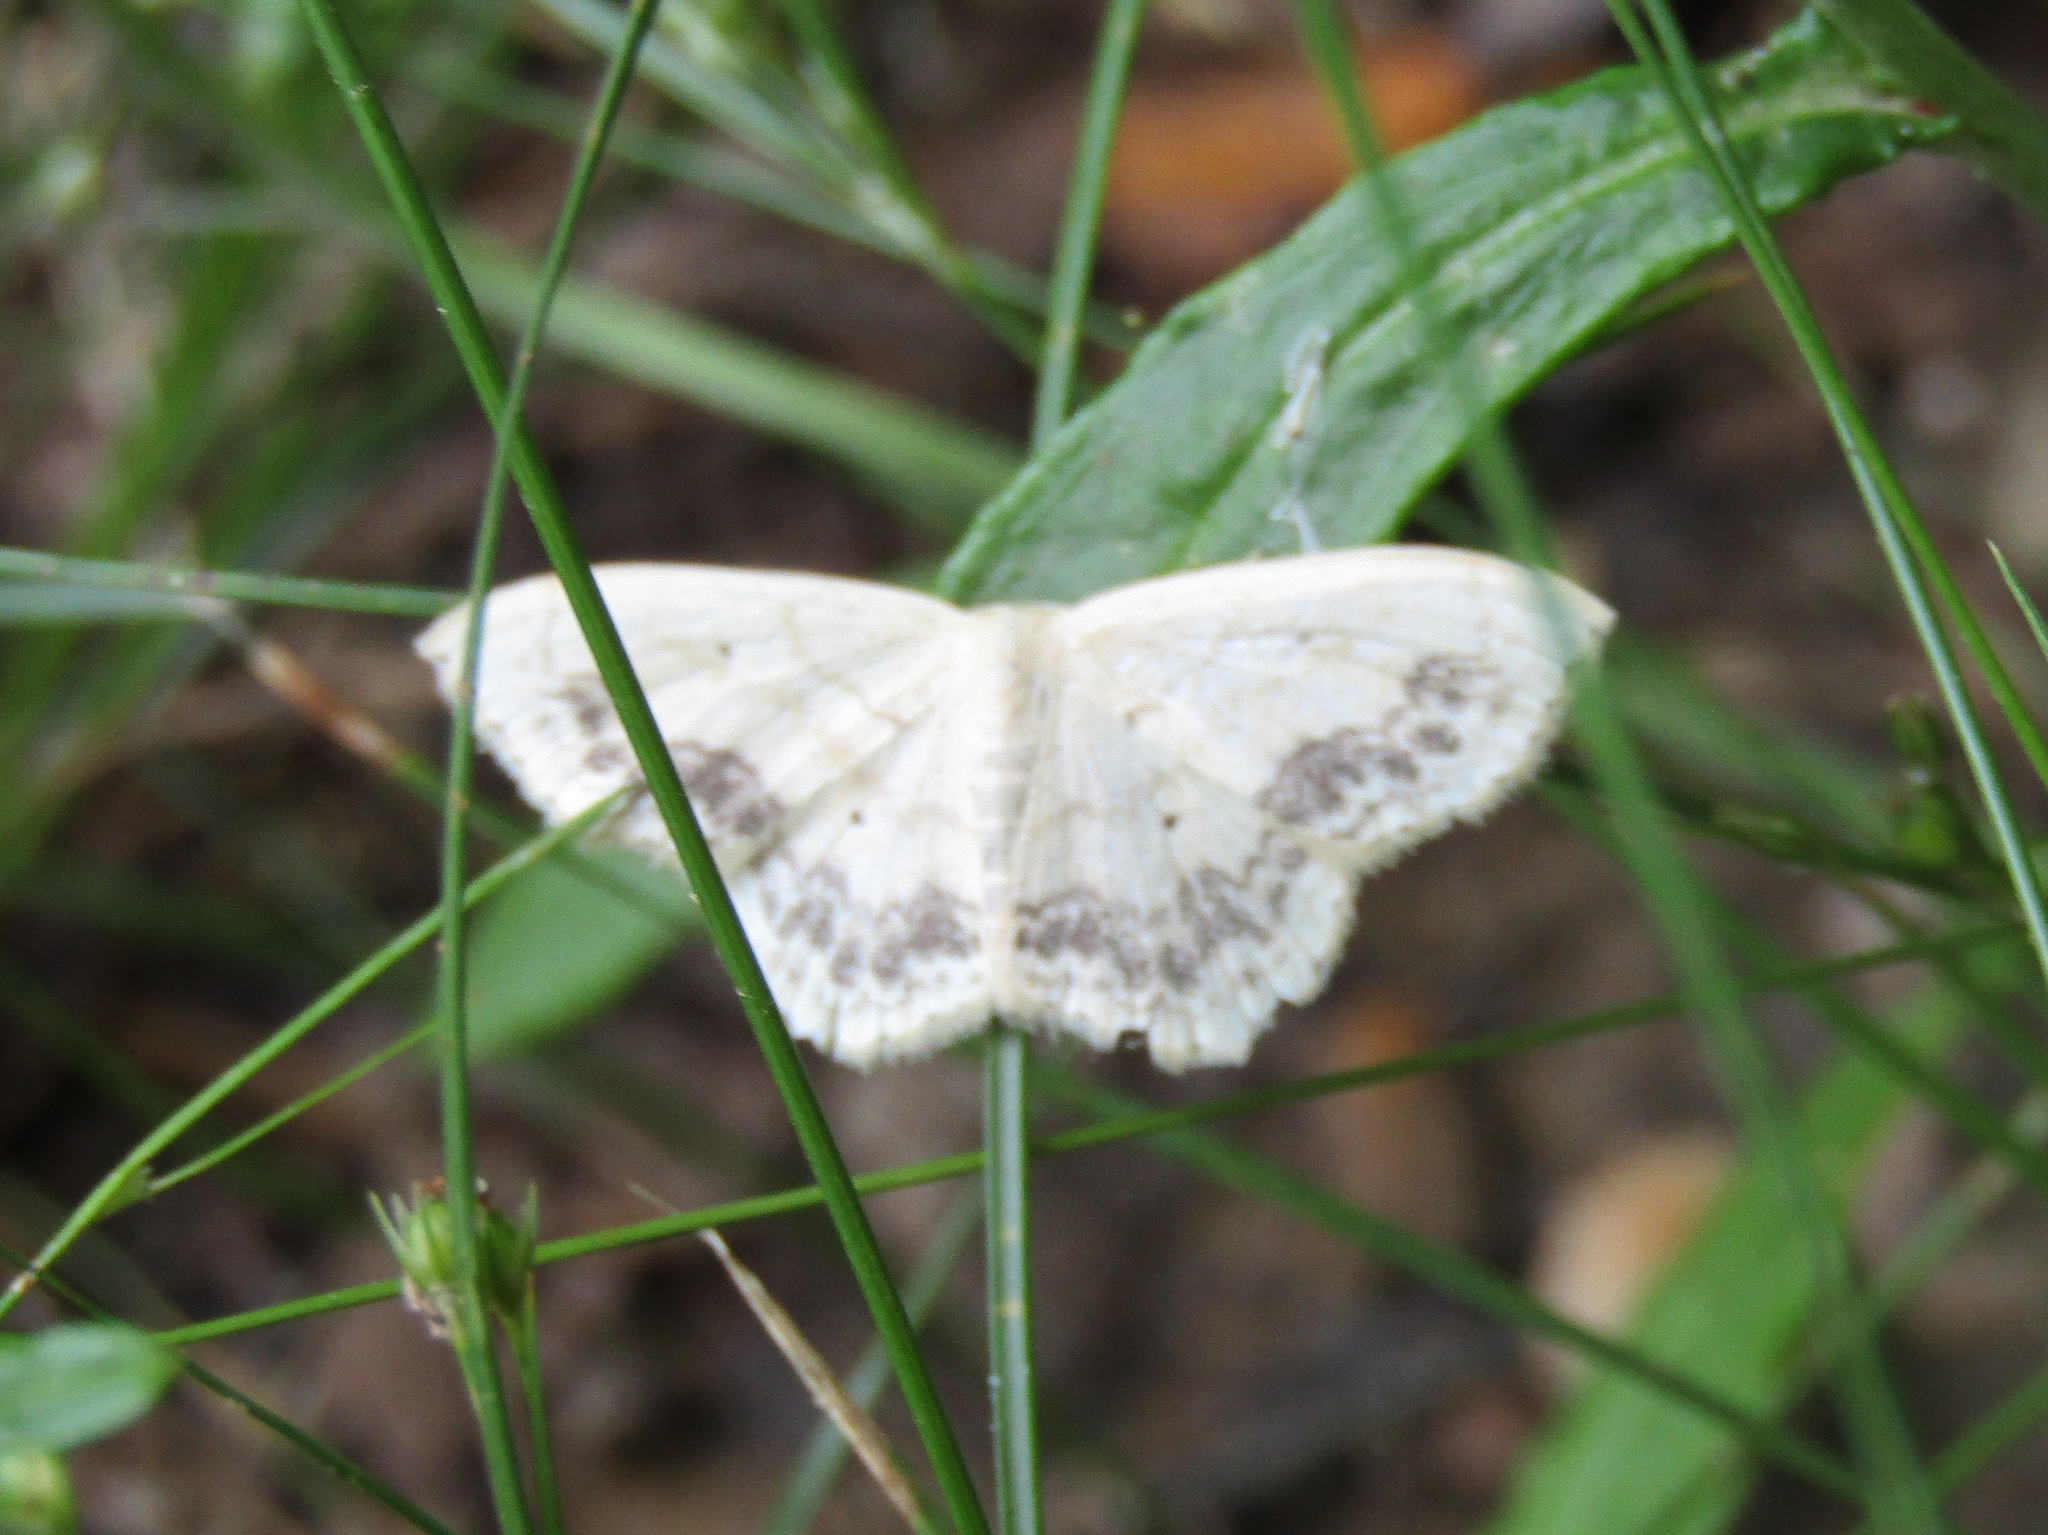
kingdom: Animalia
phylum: Arthropoda
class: Insecta
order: Lepidoptera
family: Geometridae
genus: Scopula
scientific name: Scopula limboundata
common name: Large lace border
